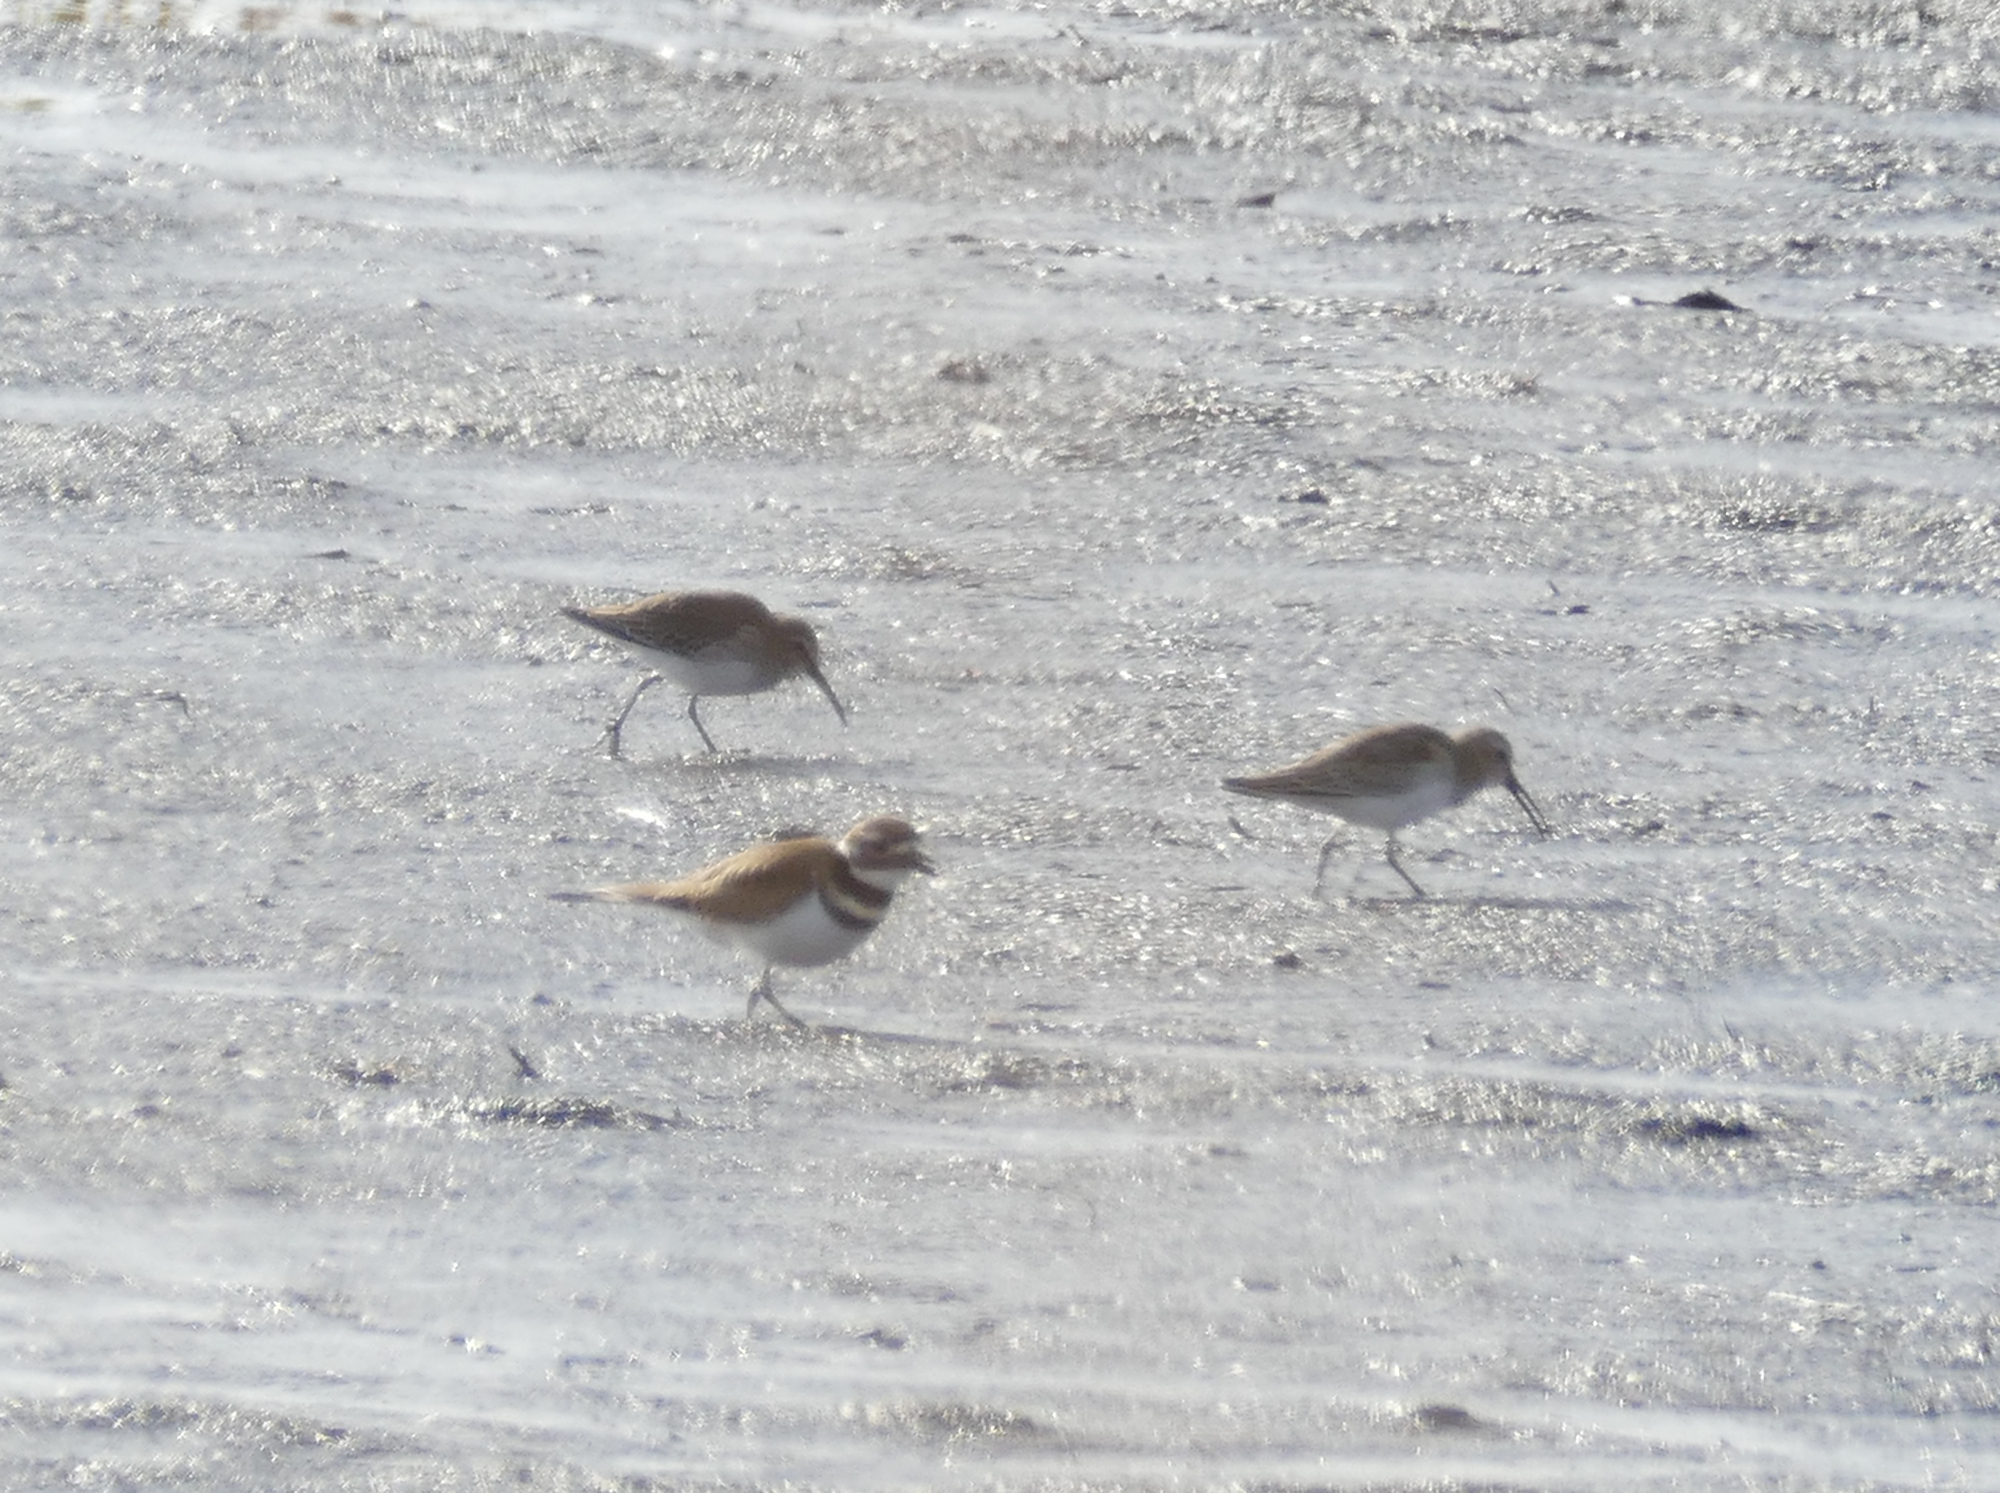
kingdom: Animalia
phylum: Chordata
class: Aves
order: Charadriiformes
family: Charadriidae
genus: Charadrius
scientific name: Charadrius vociferus
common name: Killdeer
